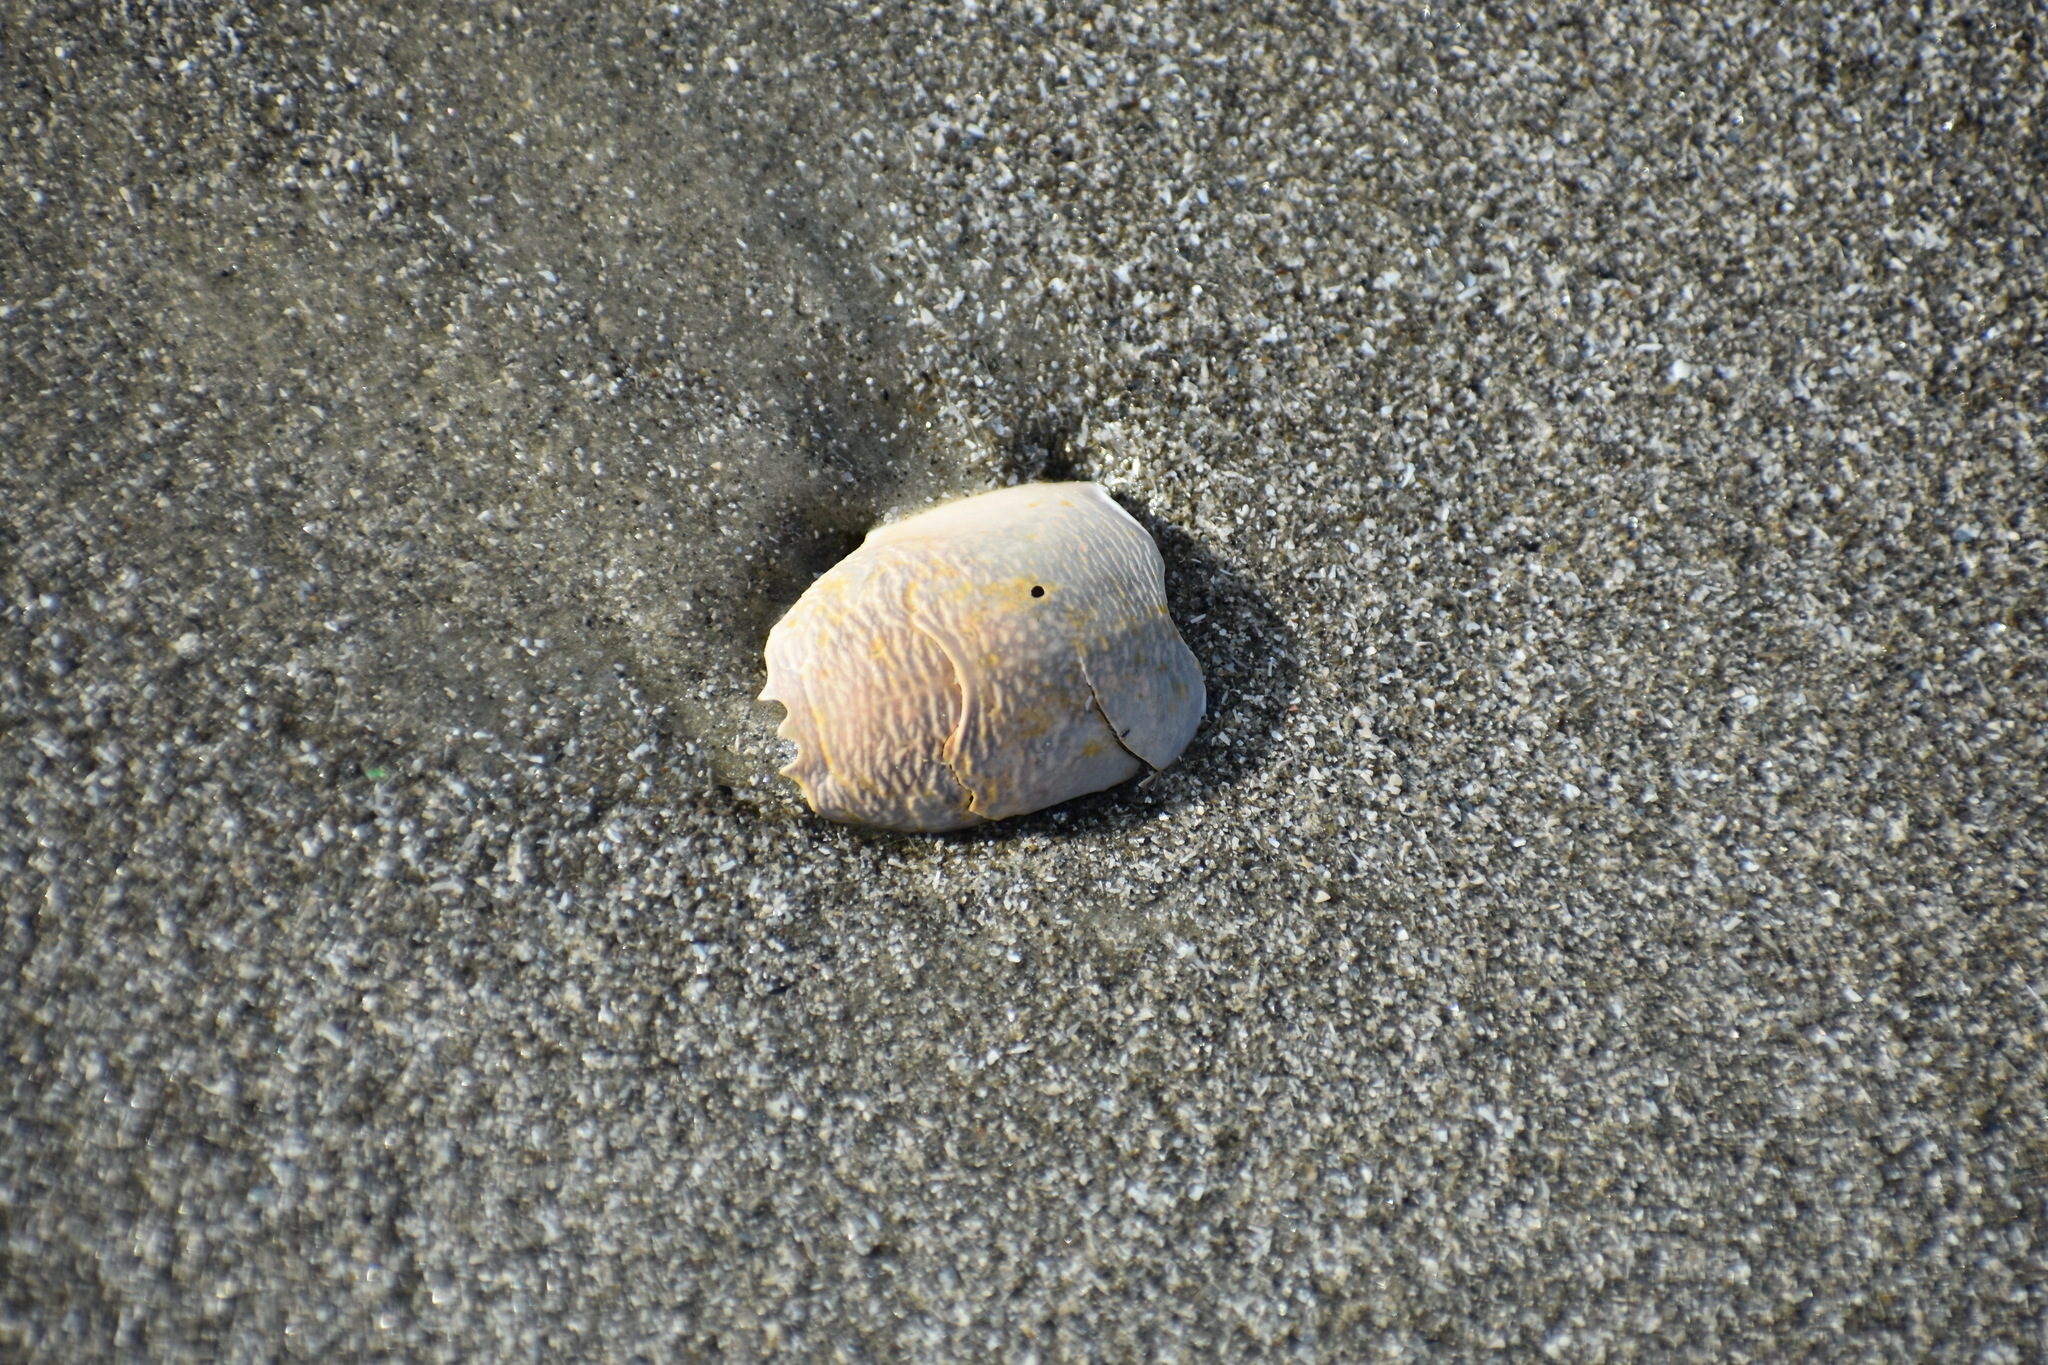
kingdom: Animalia
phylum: Arthropoda
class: Malacostraca
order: Decapoda
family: Hippidae
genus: Emerita
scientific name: Emerita talpoida
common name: Atlantic sand crab
